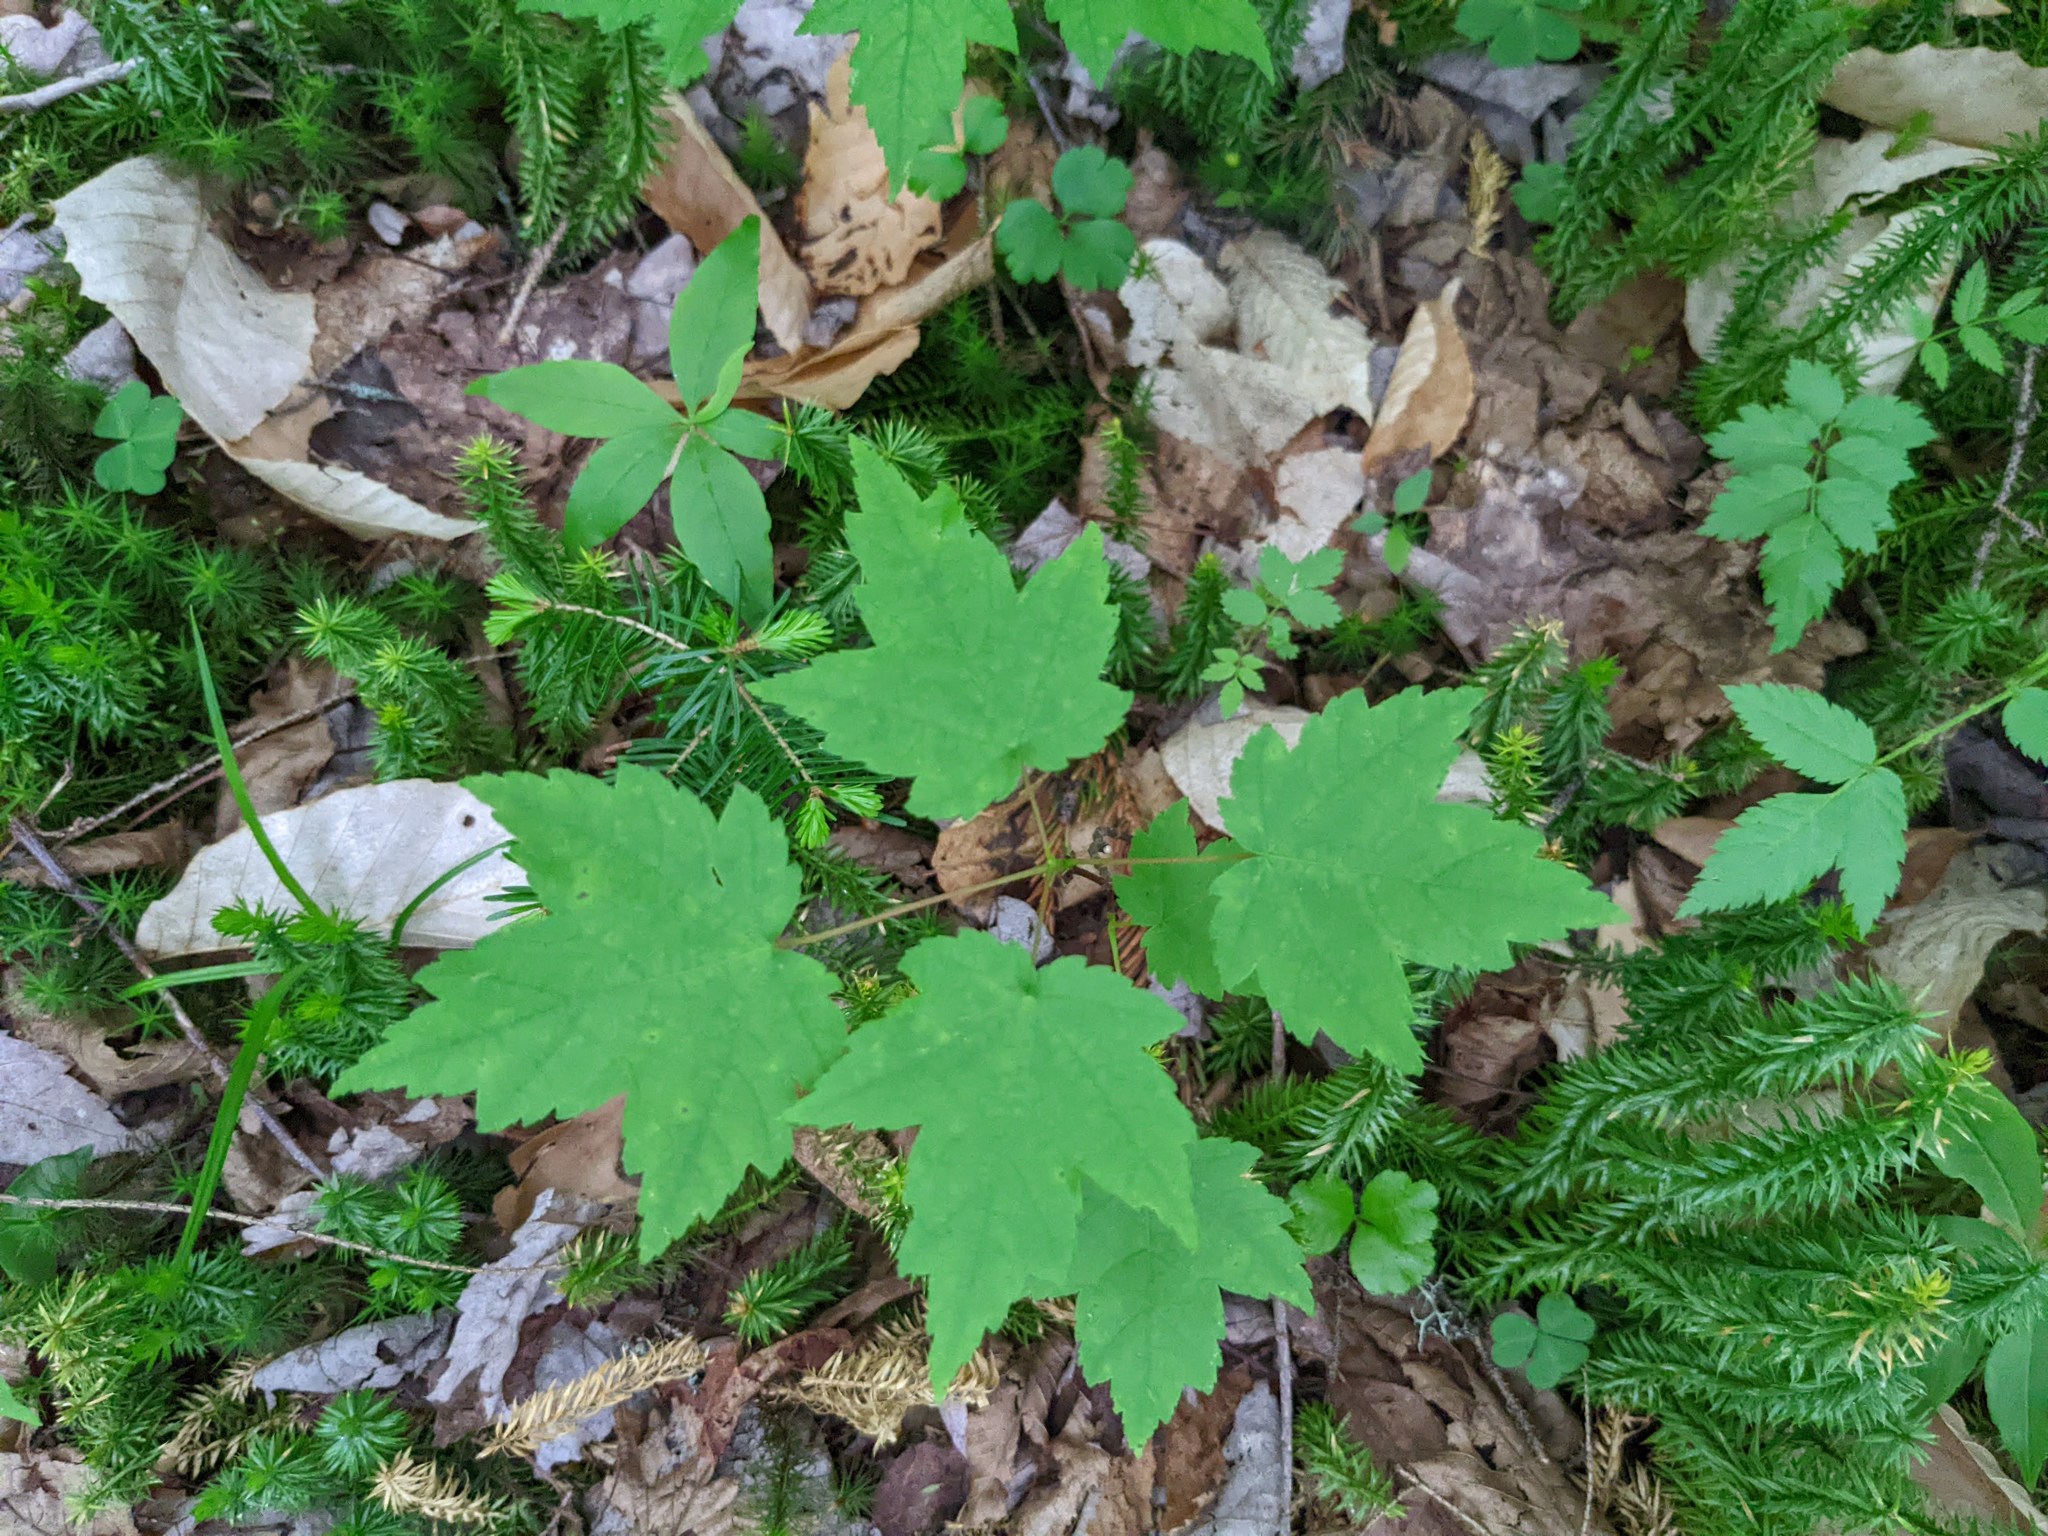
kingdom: Plantae
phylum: Tracheophyta
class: Magnoliopsida
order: Sapindales
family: Sapindaceae
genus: Acer
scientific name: Acer rubrum
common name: Red maple
